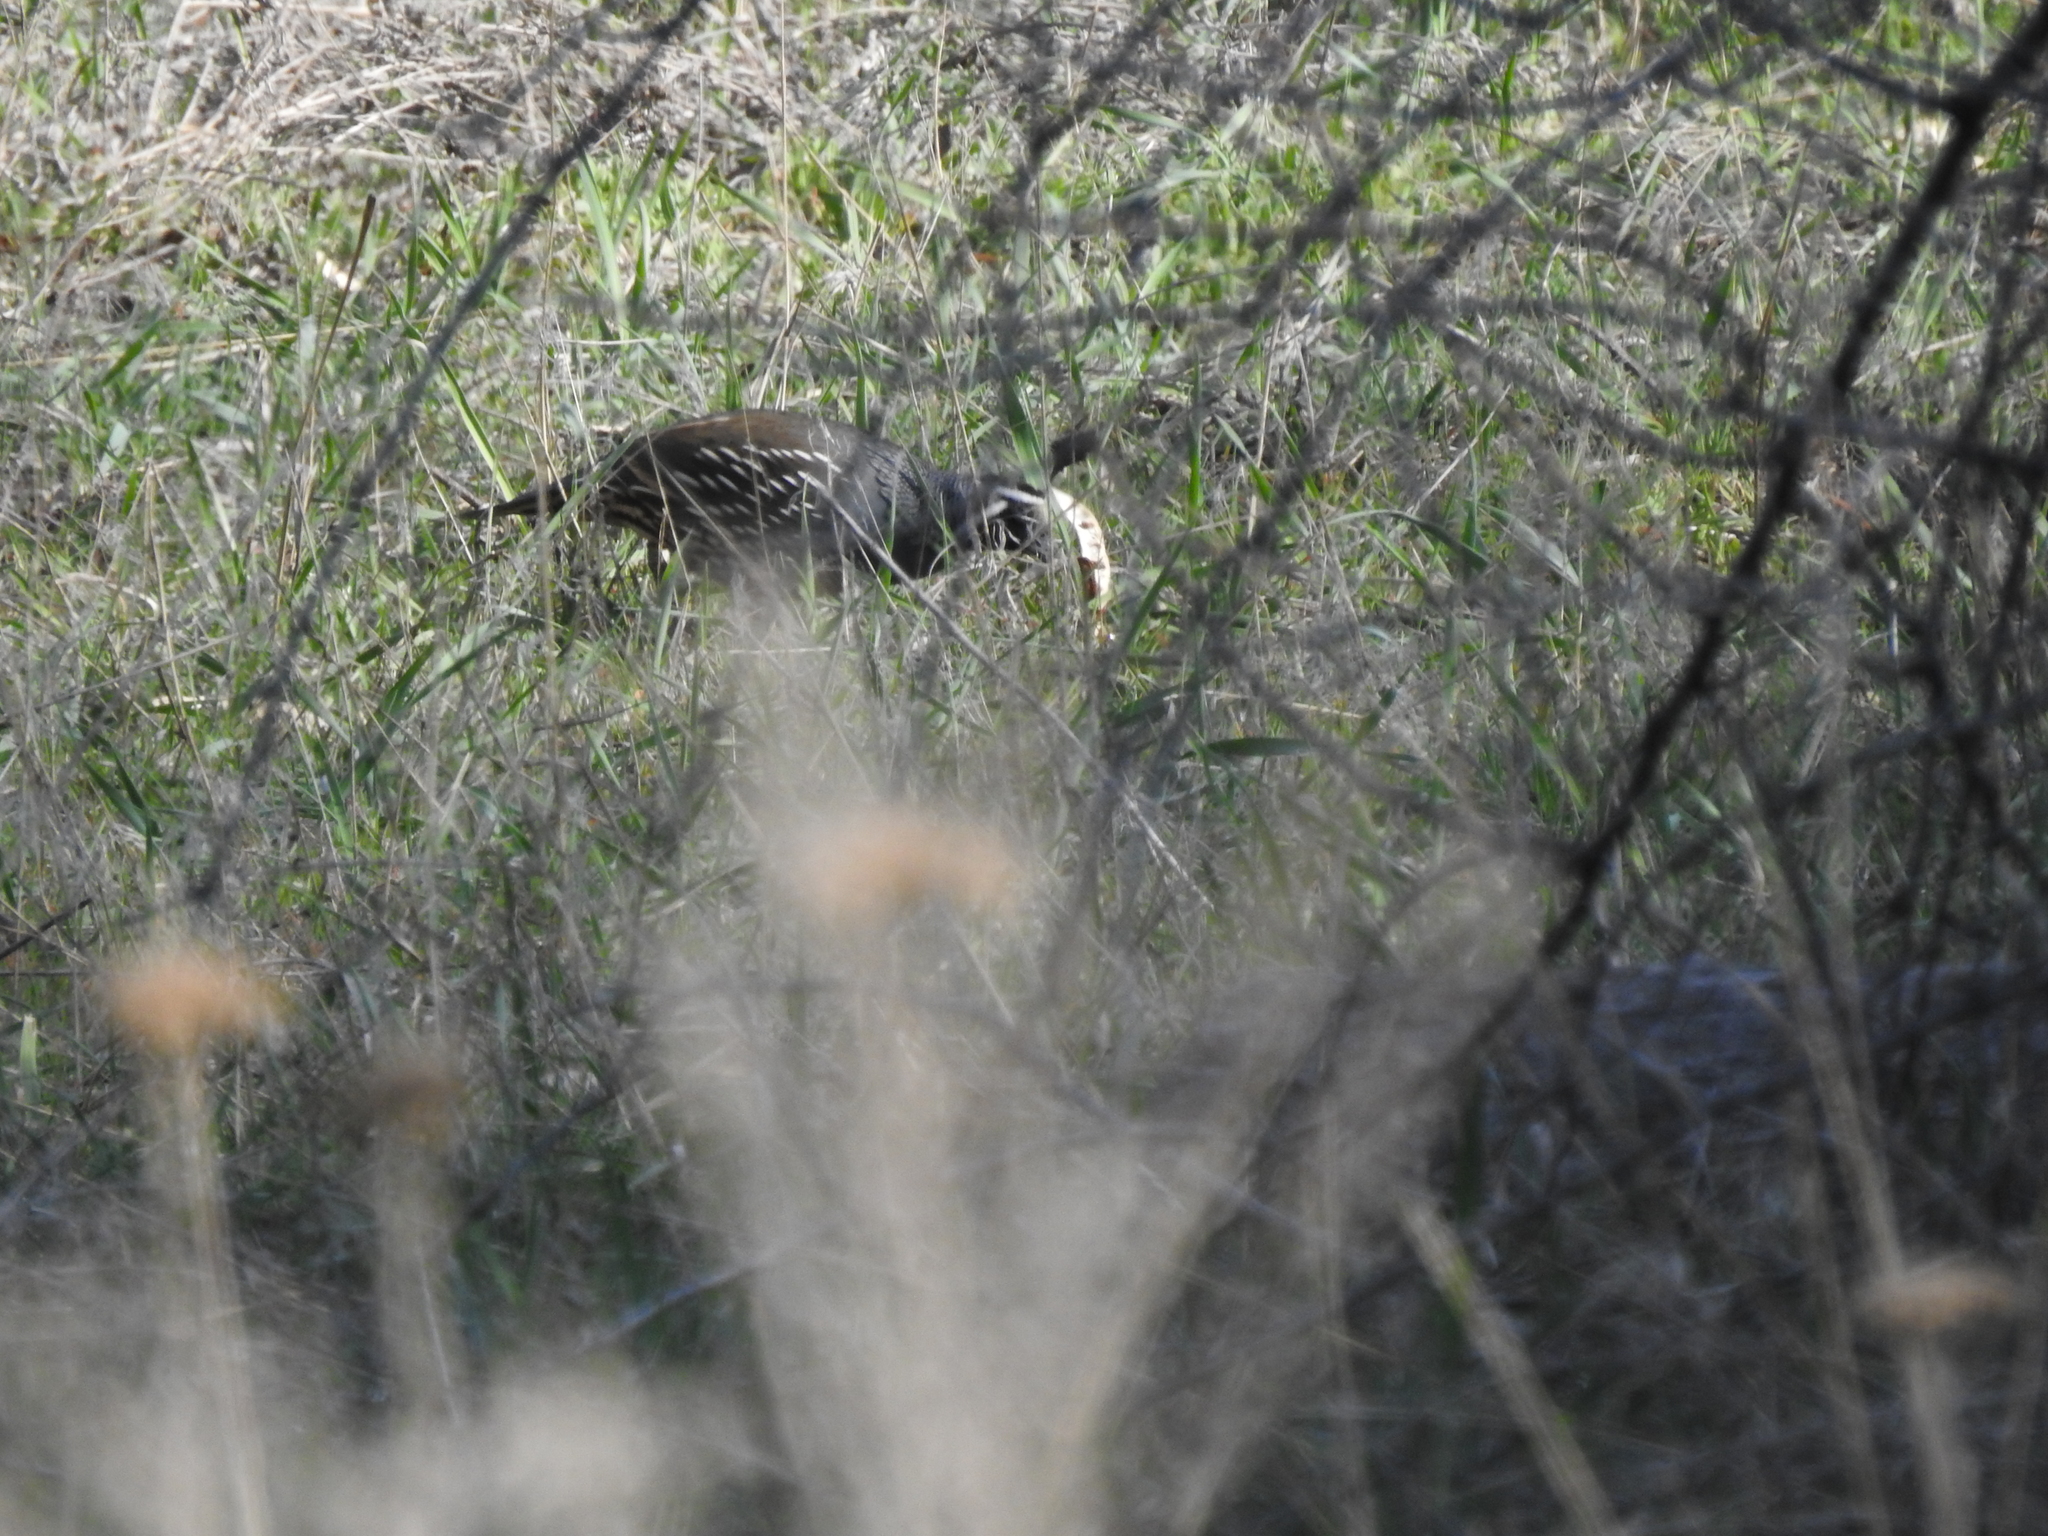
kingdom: Animalia
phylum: Chordata
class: Aves
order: Galliformes
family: Odontophoridae
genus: Callipepla
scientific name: Callipepla californica
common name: California quail
